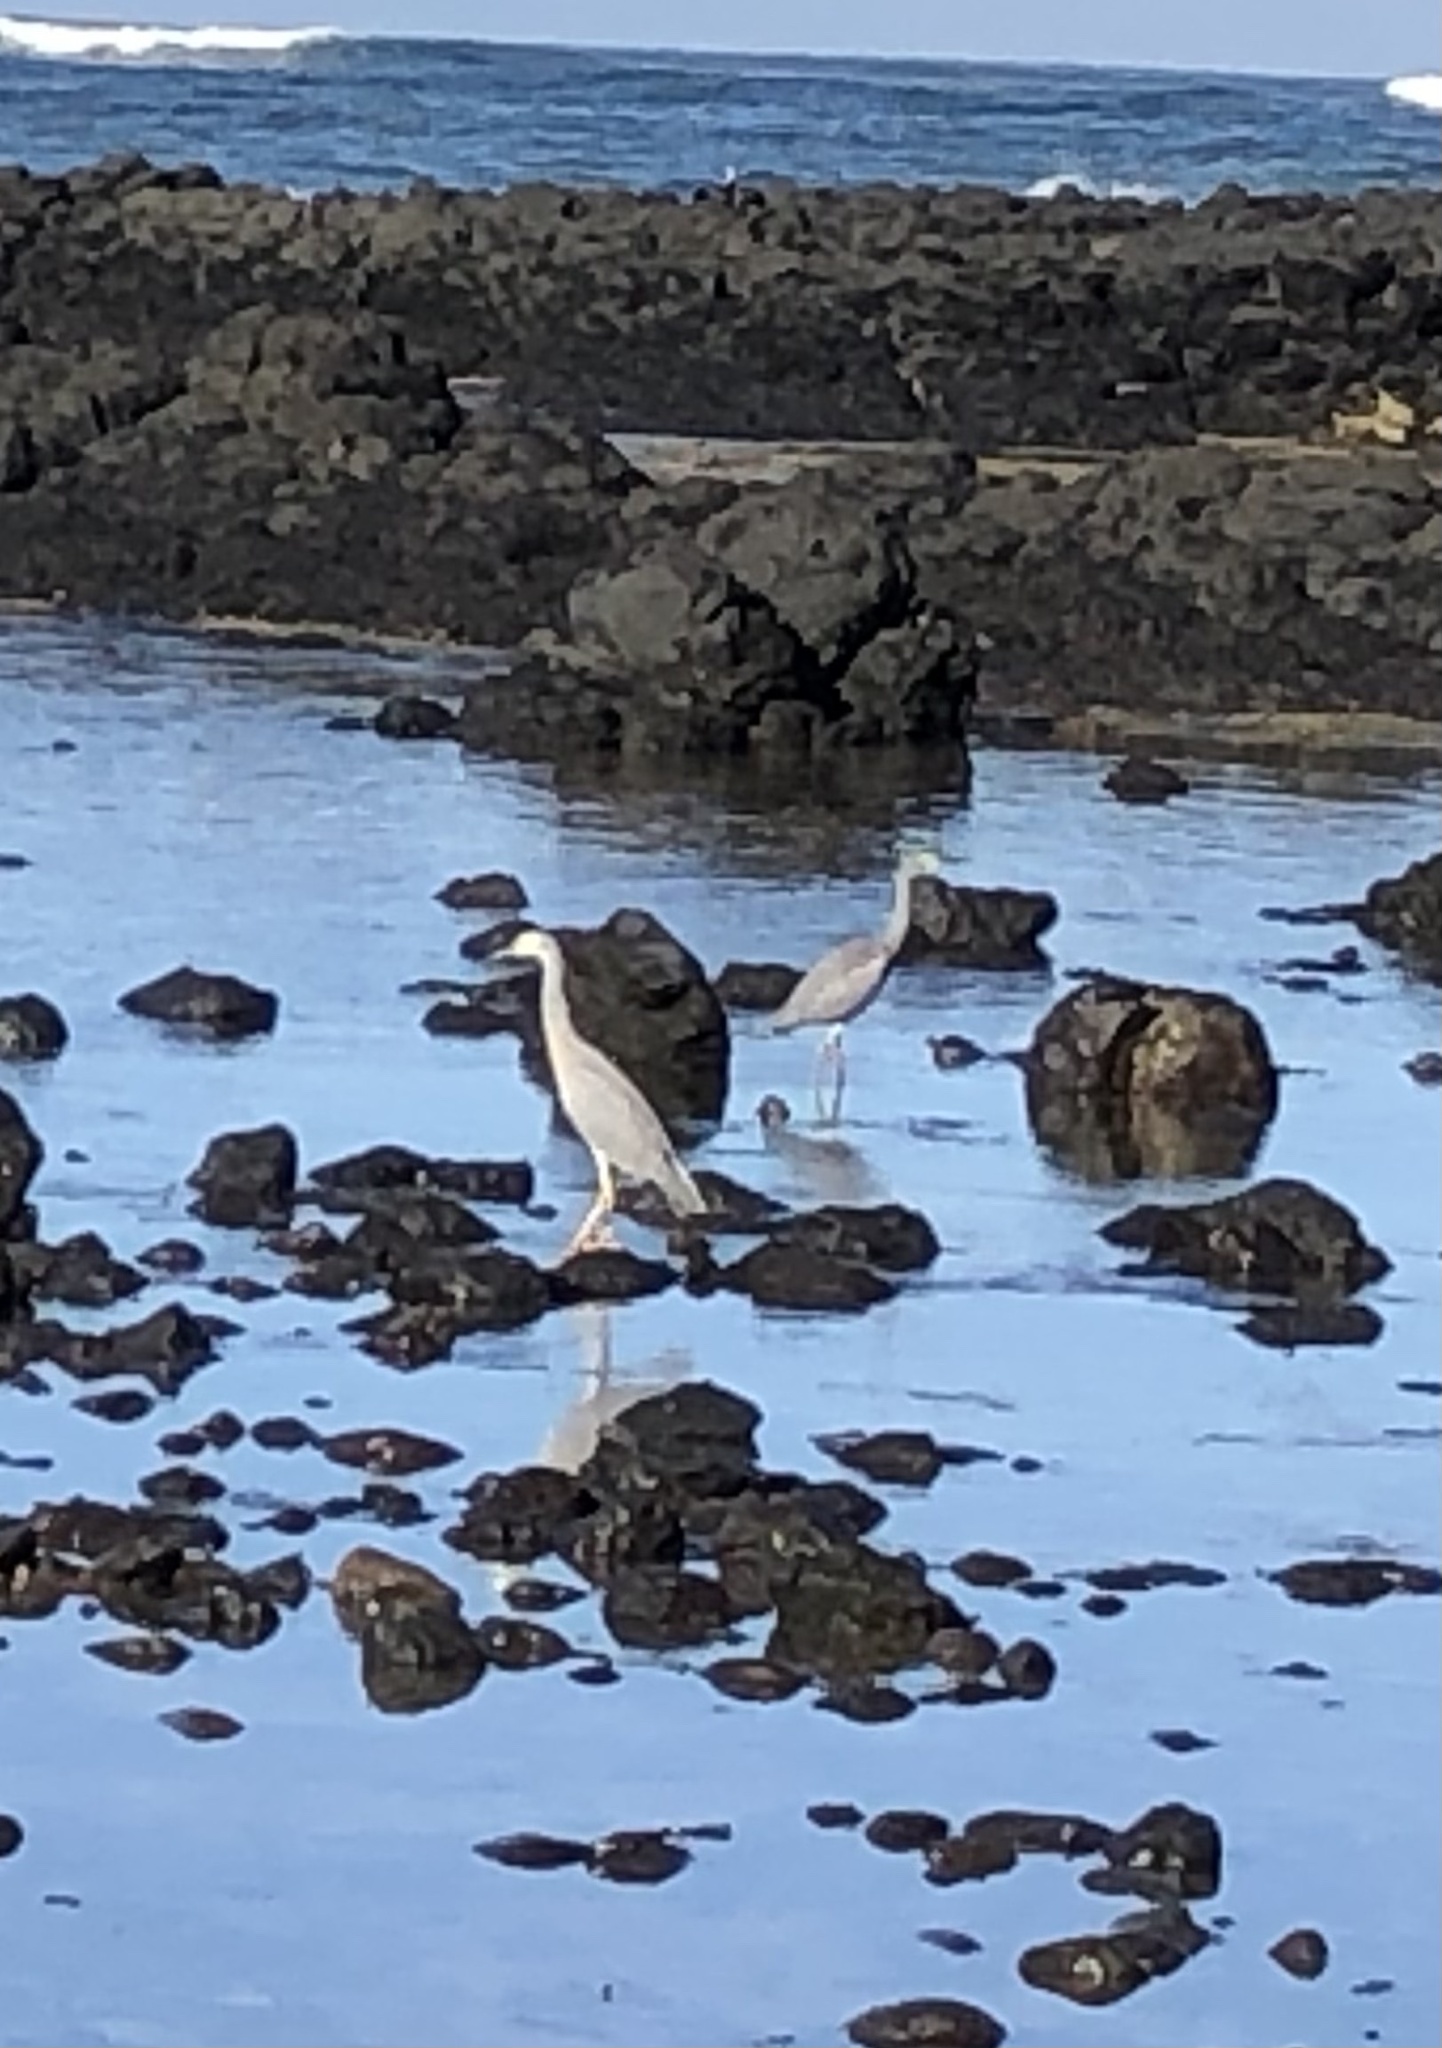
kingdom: Animalia
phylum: Chordata
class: Aves
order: Pelecaniformes
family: Ardeidae
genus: Egretta
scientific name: Egretta novaehollandiae
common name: White-faced heron
